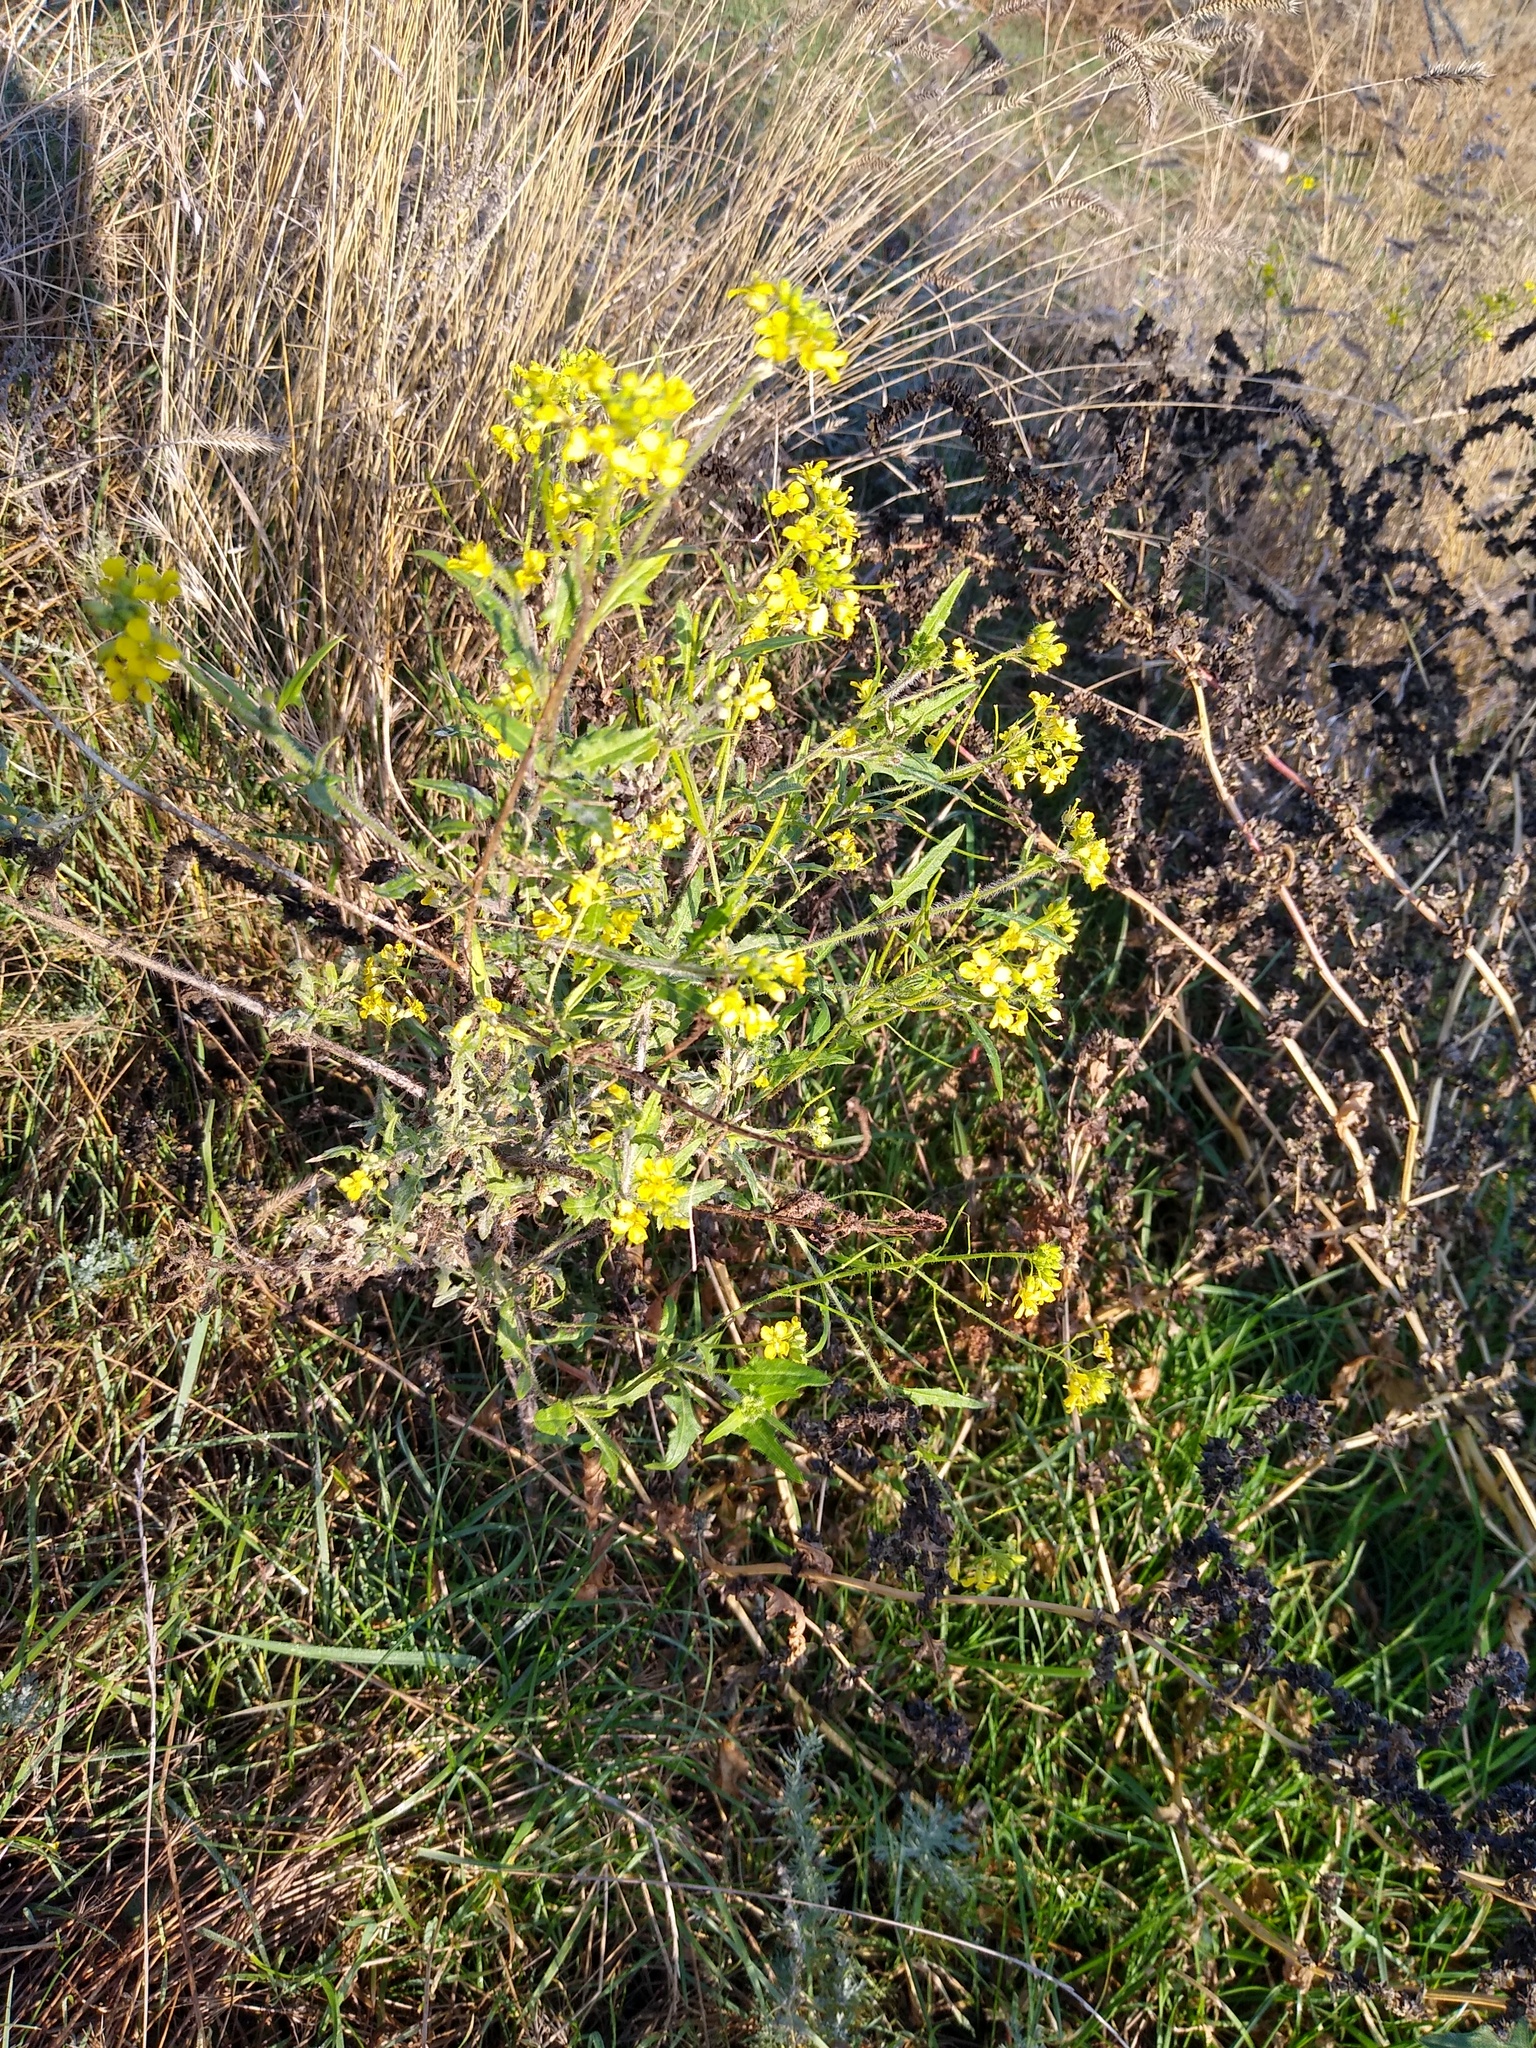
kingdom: Plantae
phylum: Tracheophyta
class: Magnoliopsida
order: Brassicales
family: Brassicaceae
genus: Sisymbrium
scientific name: Sisymbrium loeselii
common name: False london-rocket
